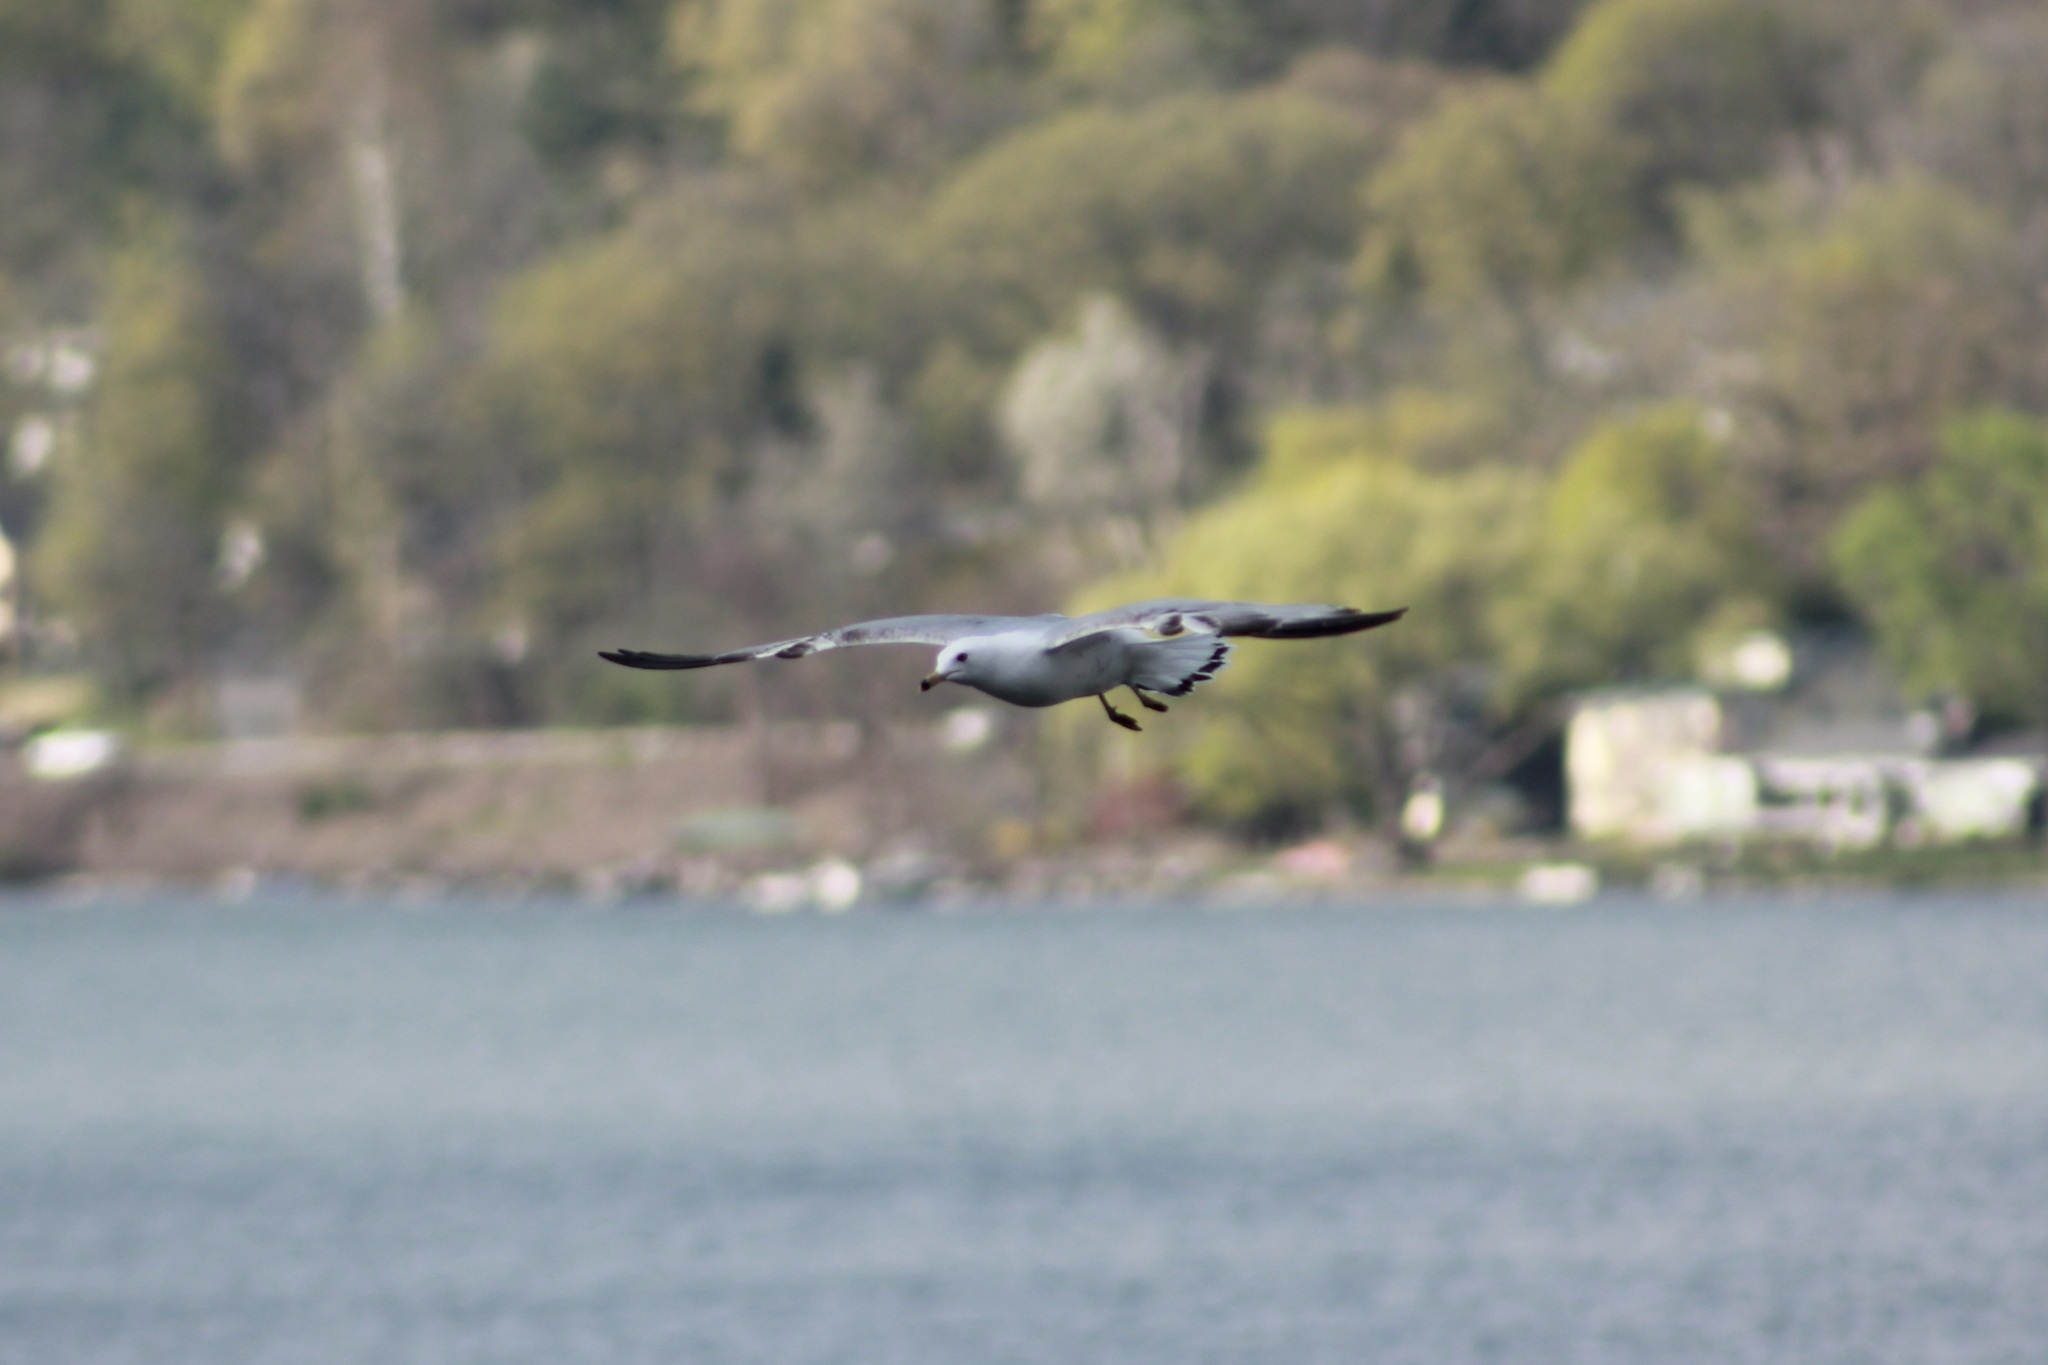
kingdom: Animalia
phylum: Chordata
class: Aves
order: Charadriiformes
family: Laridae
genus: Larus
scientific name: Larus delawarensis
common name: Ring-billed gull
